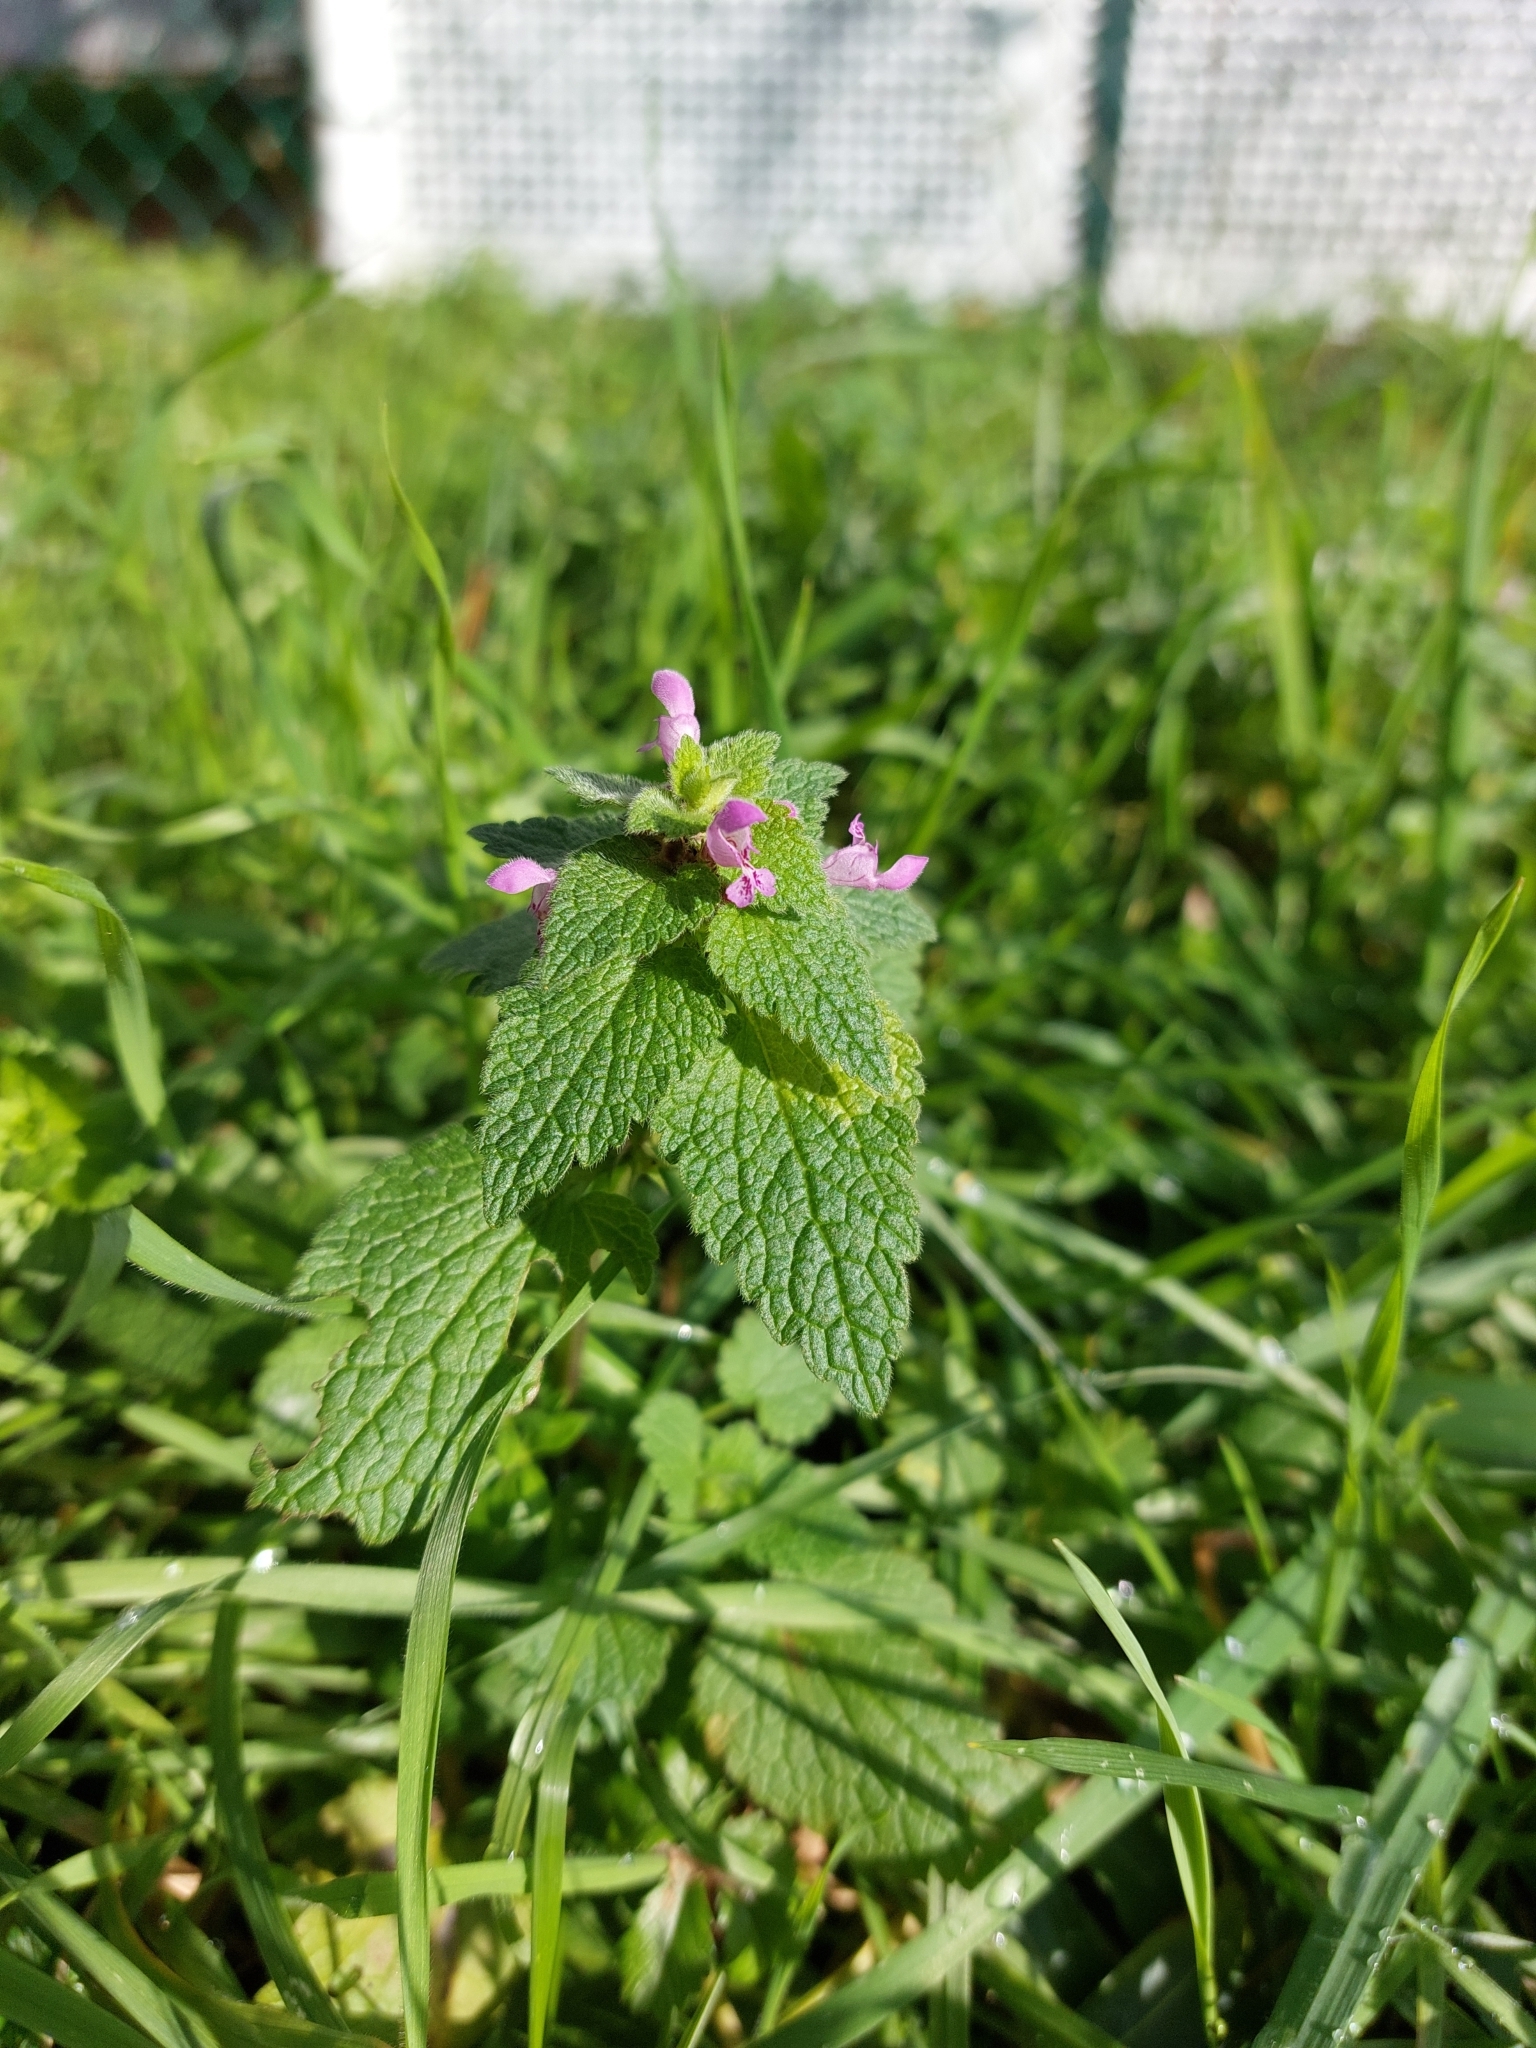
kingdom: Plantae
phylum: Tracheophyta
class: Magnoliopsida
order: Lamiales
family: Lamiaceae
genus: Lamium
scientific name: Lamium purpureum
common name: Red dead-nettle
